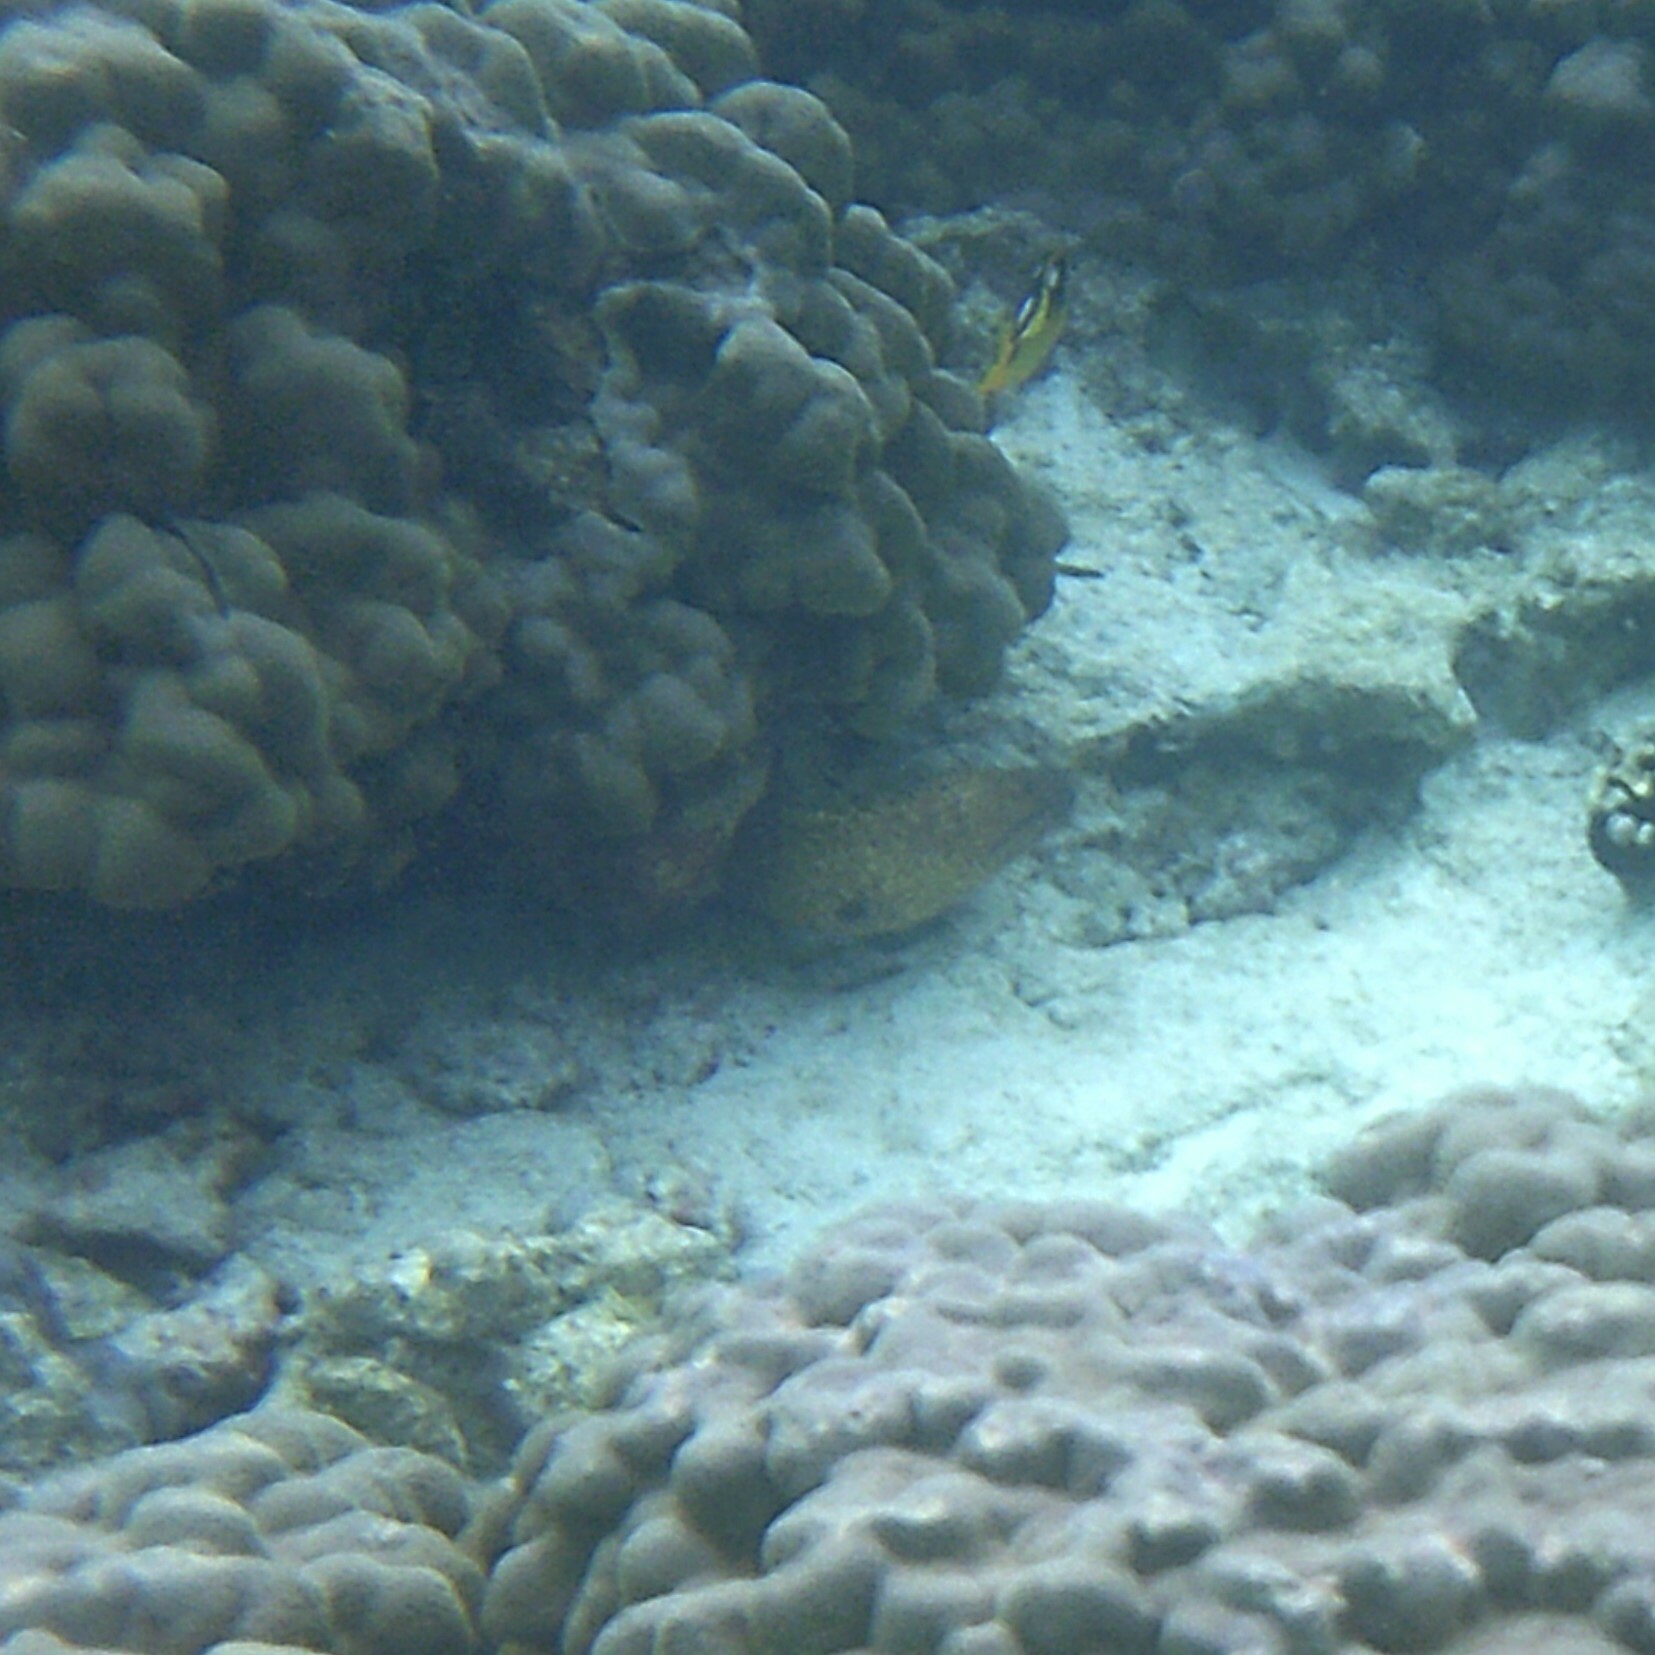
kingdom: Animalia
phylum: Chordata
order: Anguilliformes
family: Muraenidae
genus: Gymnothorax
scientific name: Gymnothorax flavimarginatus
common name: Yellow-edged moray
